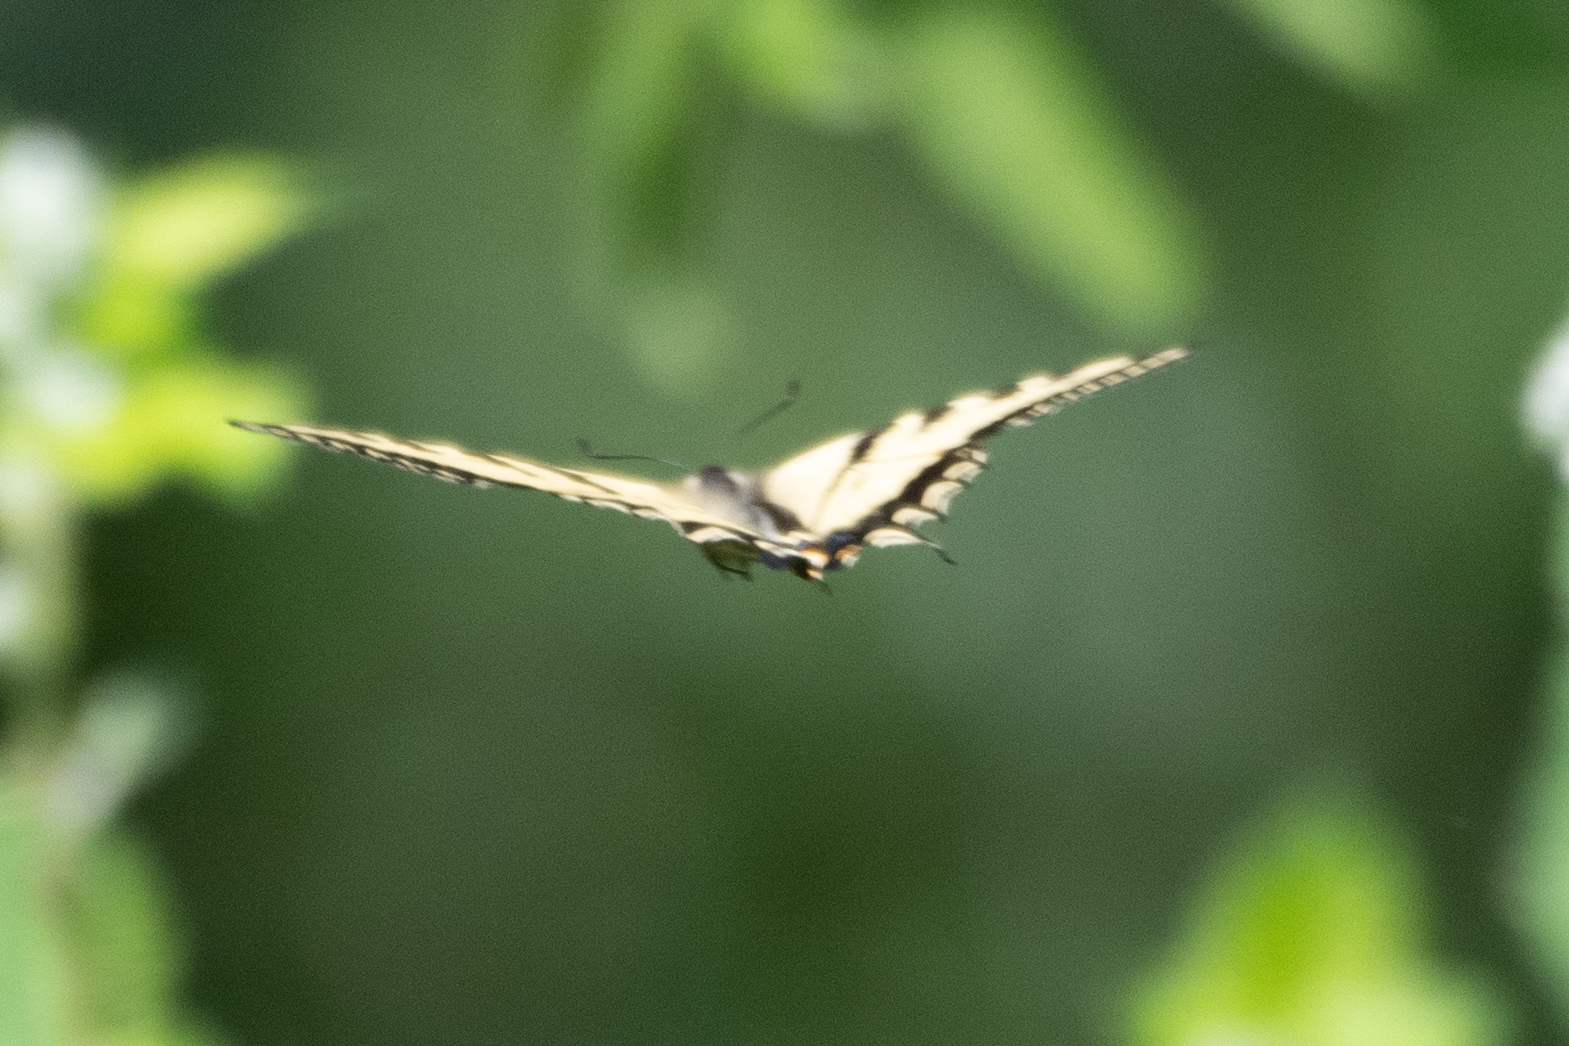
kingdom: Animalia
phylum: Arthropoda
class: Insecta
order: Lepidoptera
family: Papilionidae
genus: Papilio
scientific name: Papilio rutulus
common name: Western tiger swallowtail
